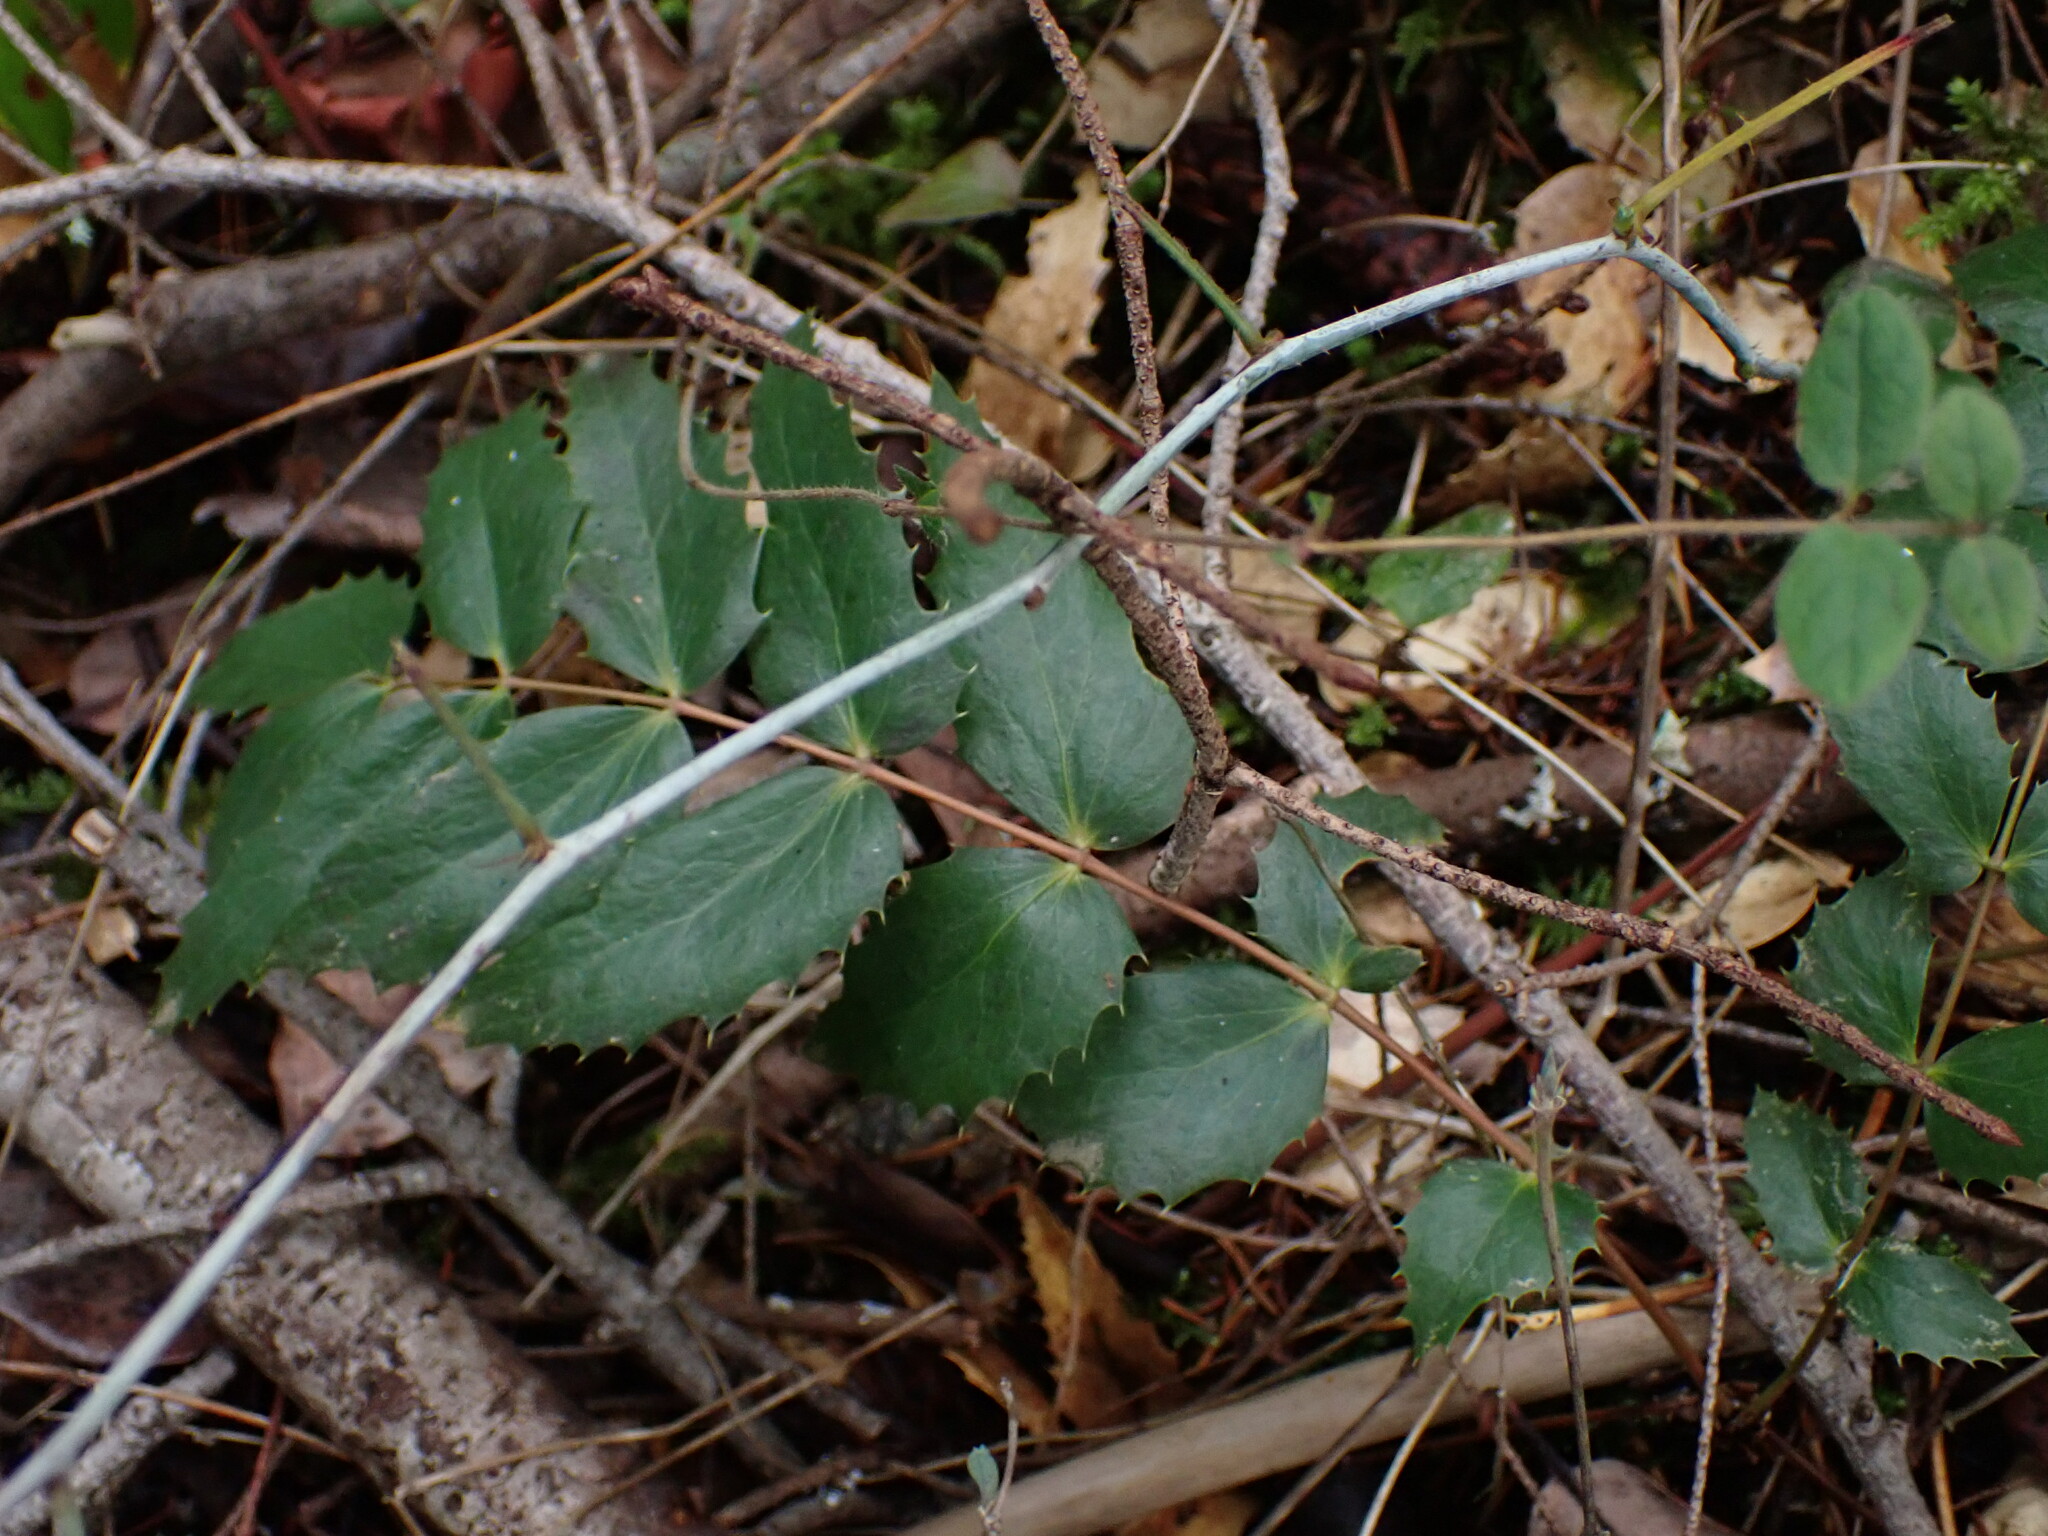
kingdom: Plantae
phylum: Tracheophyta
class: Magnoliopsida
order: Ranunculales
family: Berberidaceae
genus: Mahonia
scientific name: Mahonia nervosa
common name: Cascade oregon-grape
